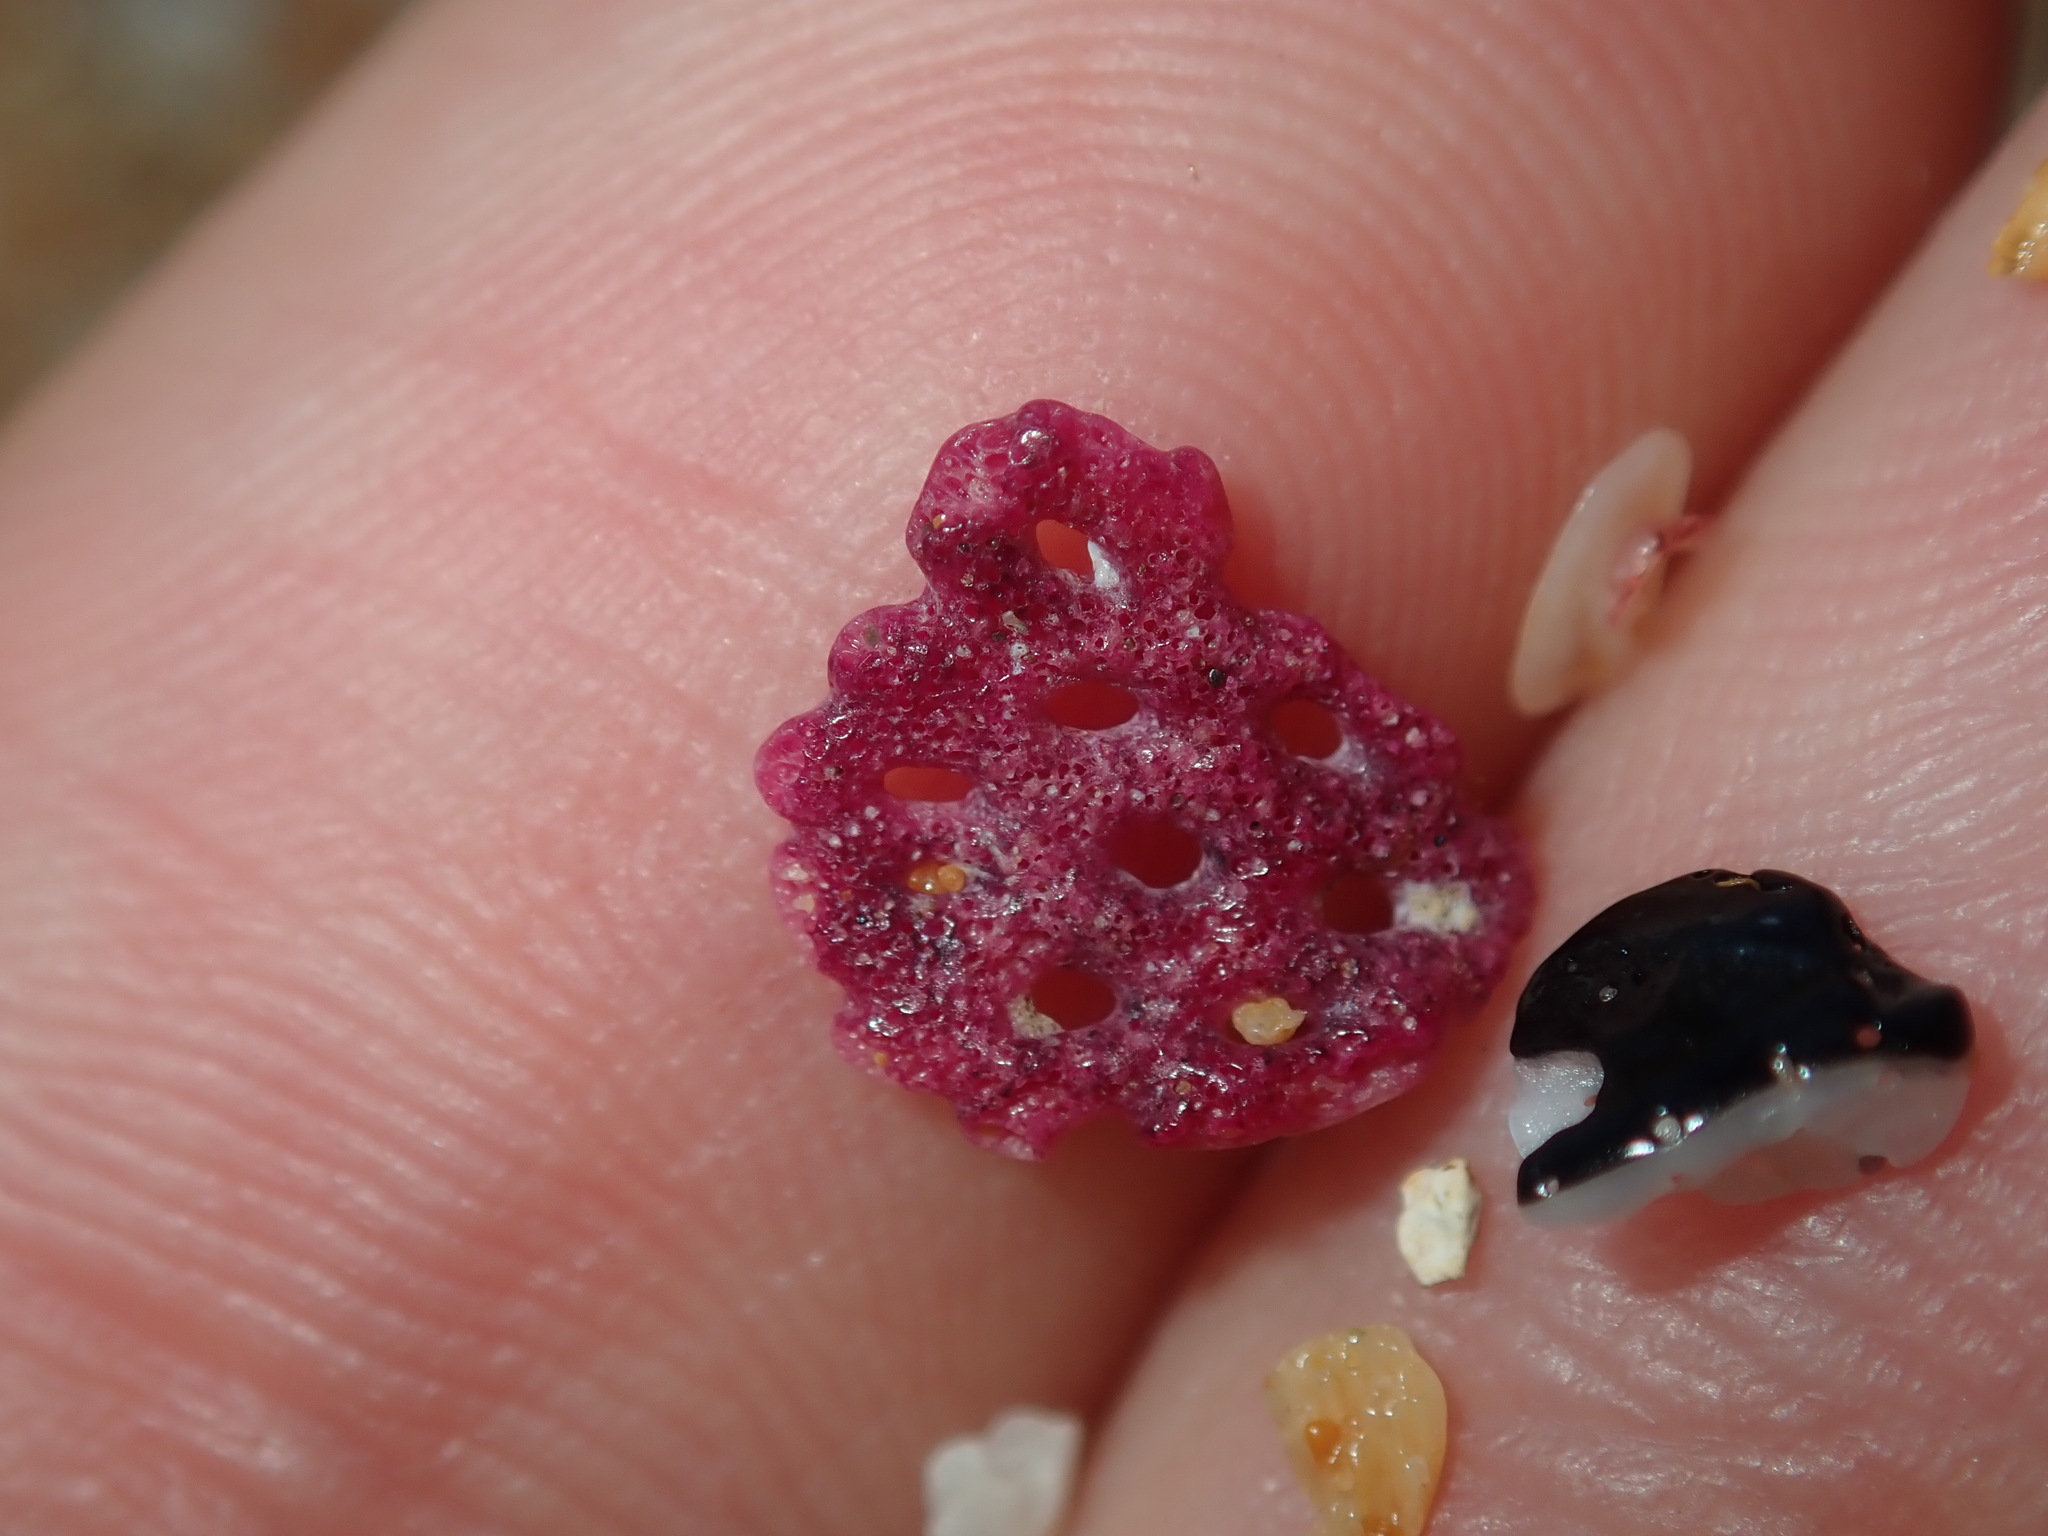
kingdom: Animalia
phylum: Bryozoa
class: Gymnolaemata
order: Cheilostomatida
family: Phidoloporidae
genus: Iodictyum
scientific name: Iodictyum phoeniceum
